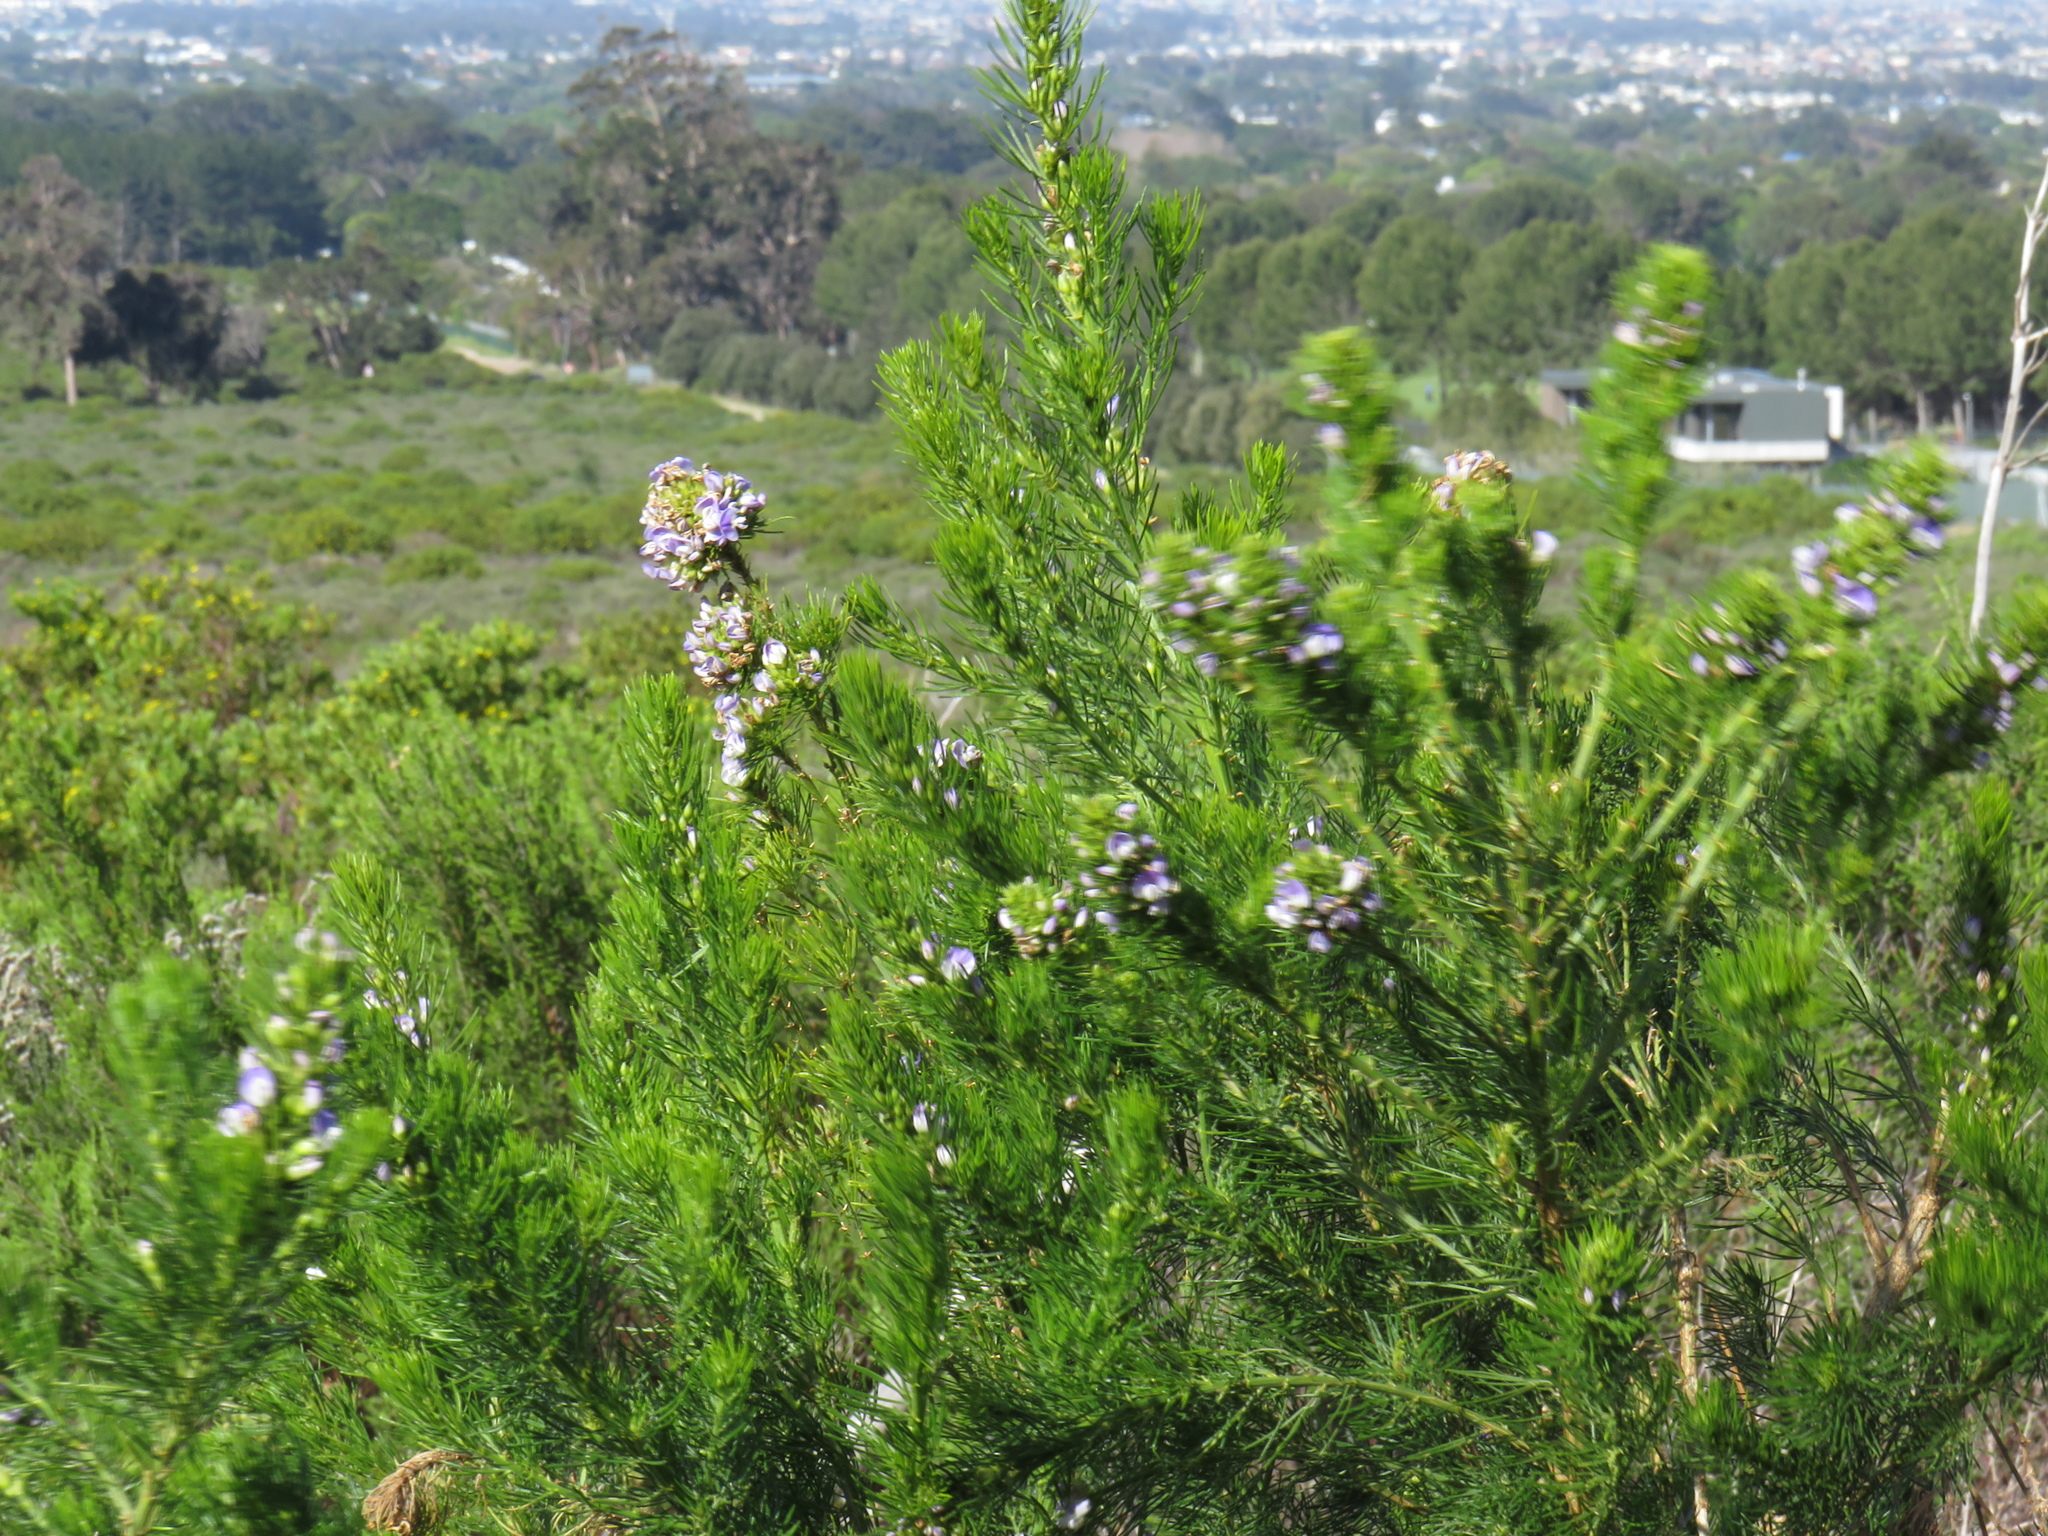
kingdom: Plantae
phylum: Tracheophyta
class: Magnoliopsida
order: Fabales
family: Fabaceae
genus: Psoralea
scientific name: Psoralea pinnata
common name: African scurfpea
